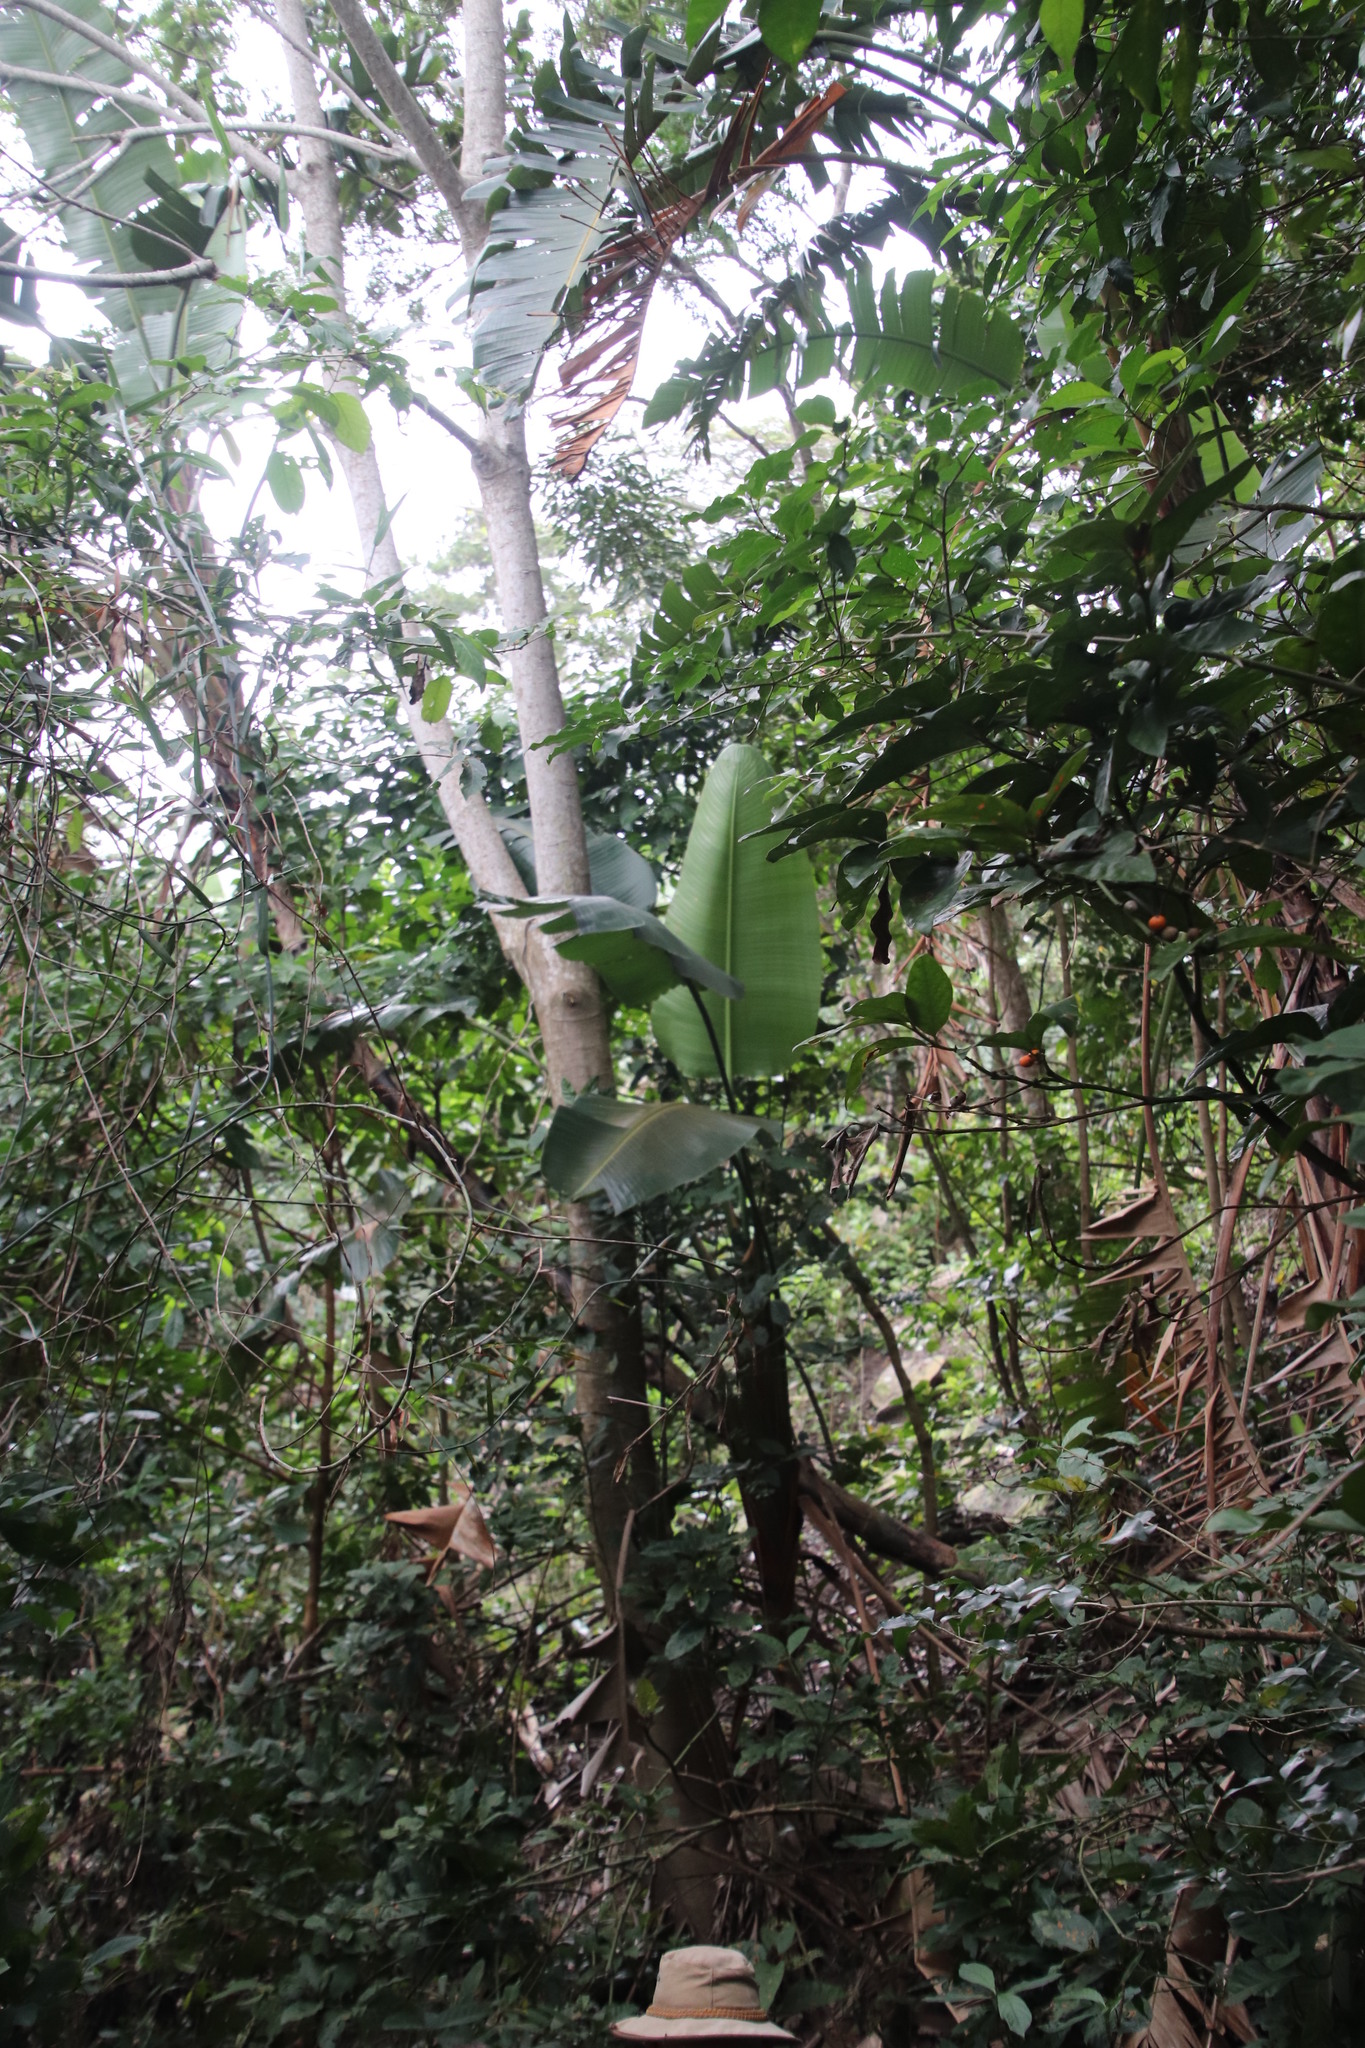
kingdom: Plantae
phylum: Tracheophyta
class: Liliopsida
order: Zingiberales
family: Strelitziaceae
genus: Strelitzia
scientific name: Strelitzia nicolai
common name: Bird-of-paradise tree
